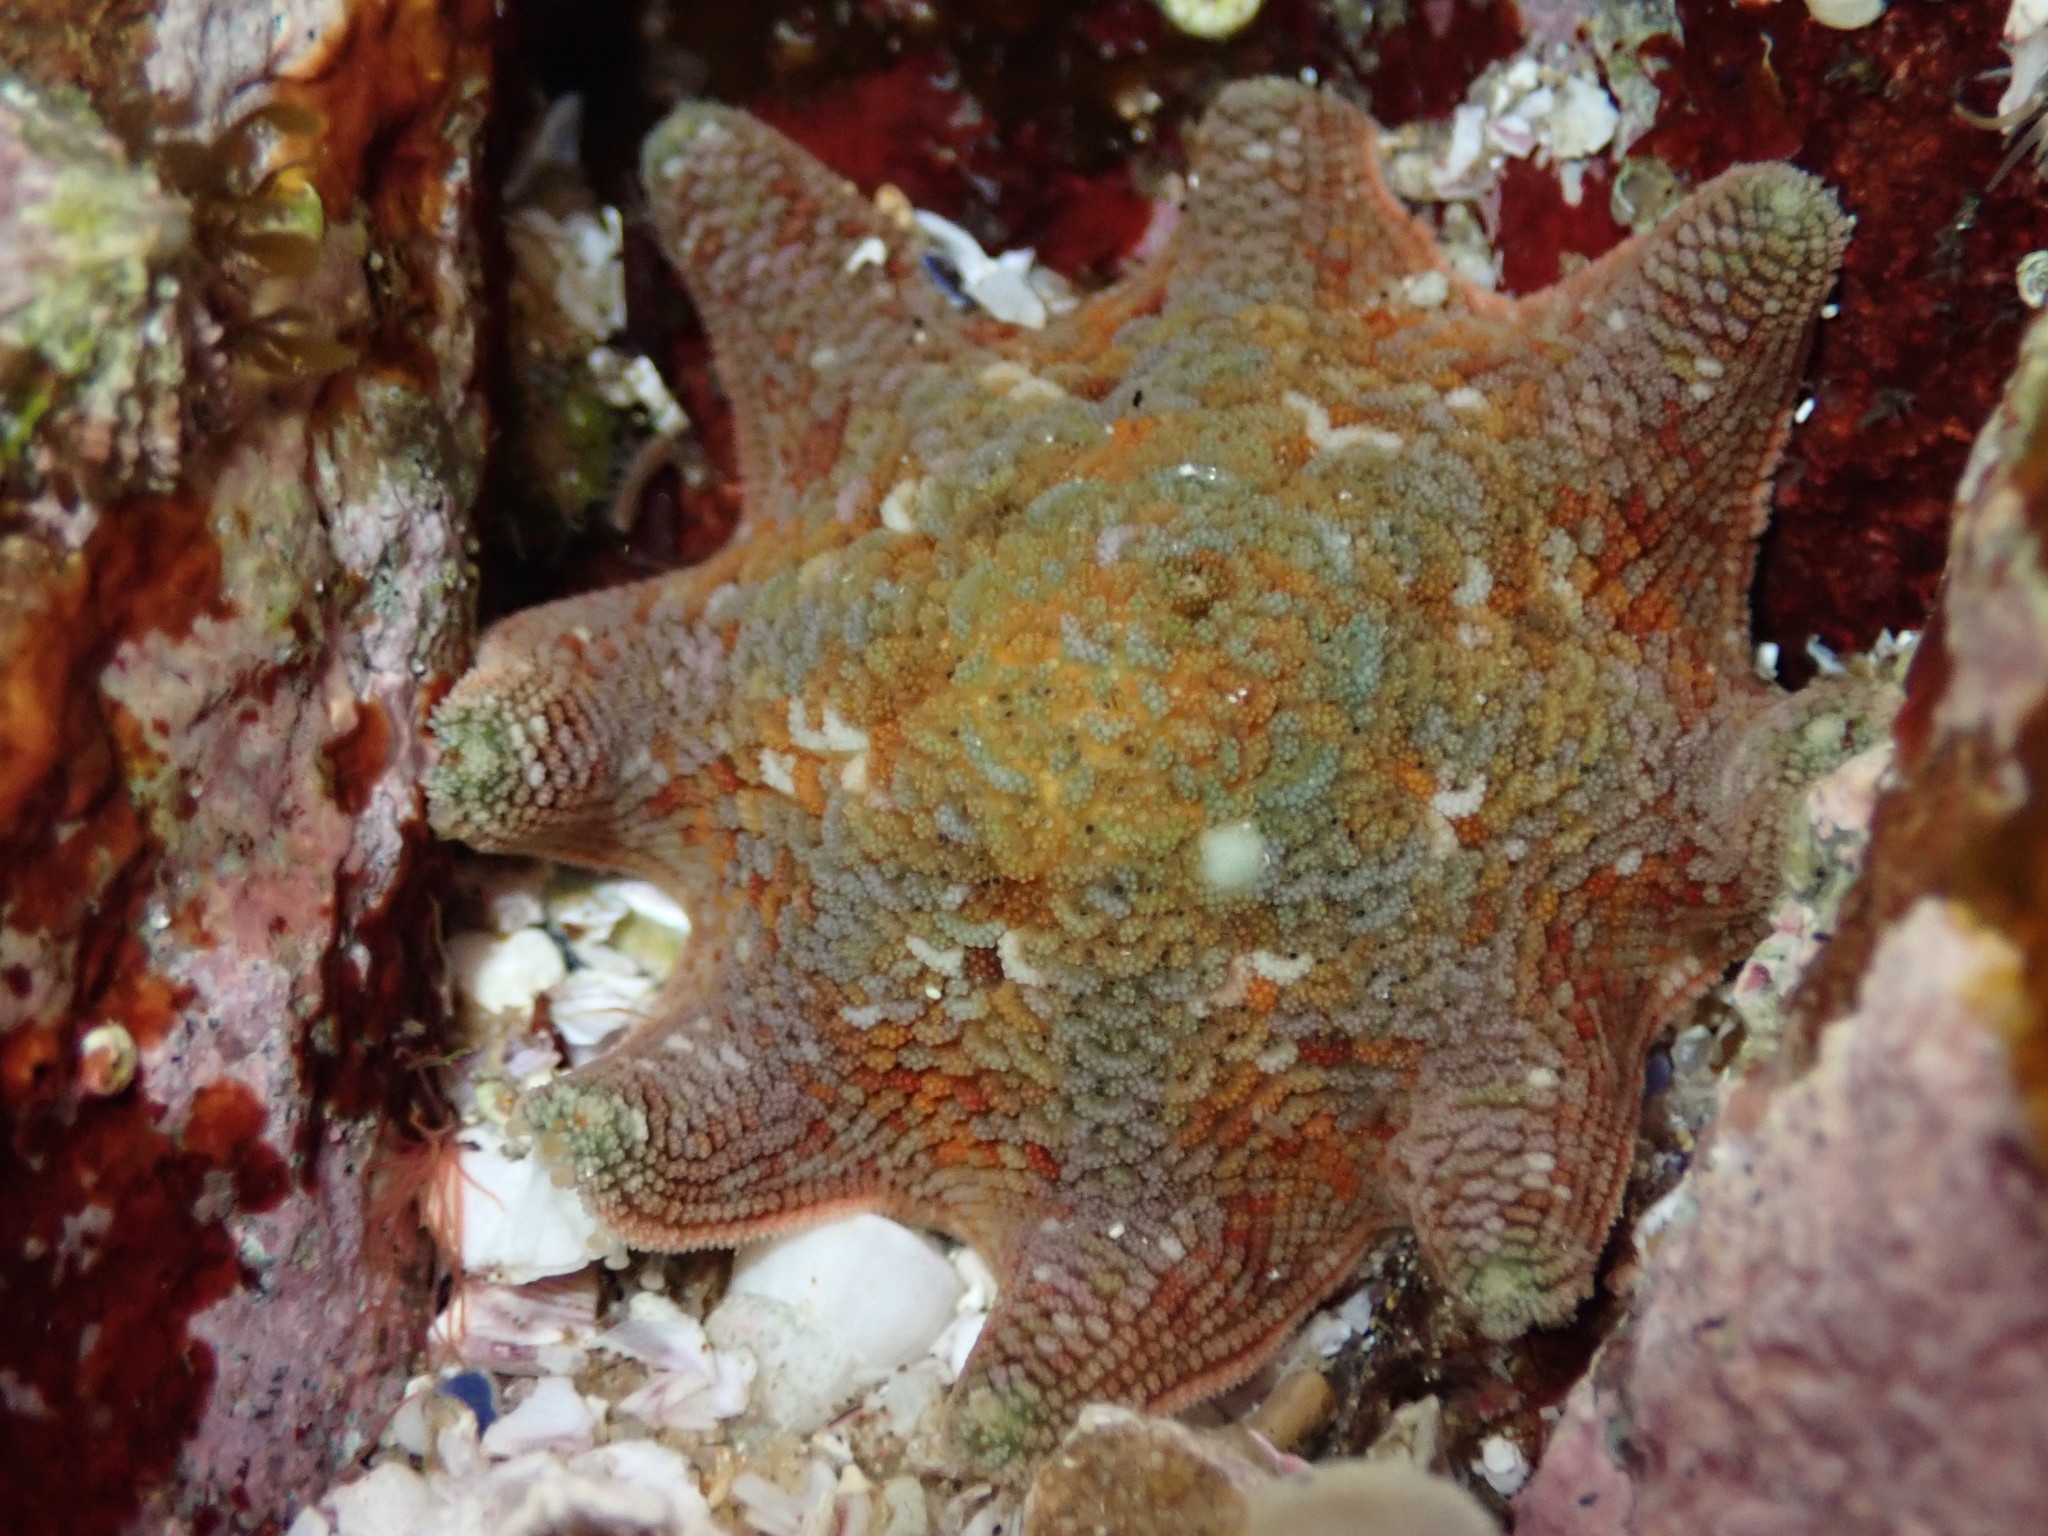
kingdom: Animalia
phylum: Echinodermata
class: Asteroidea
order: Valvatida
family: Asterinidae
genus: Meridiastra
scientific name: Meridiastra calcar
